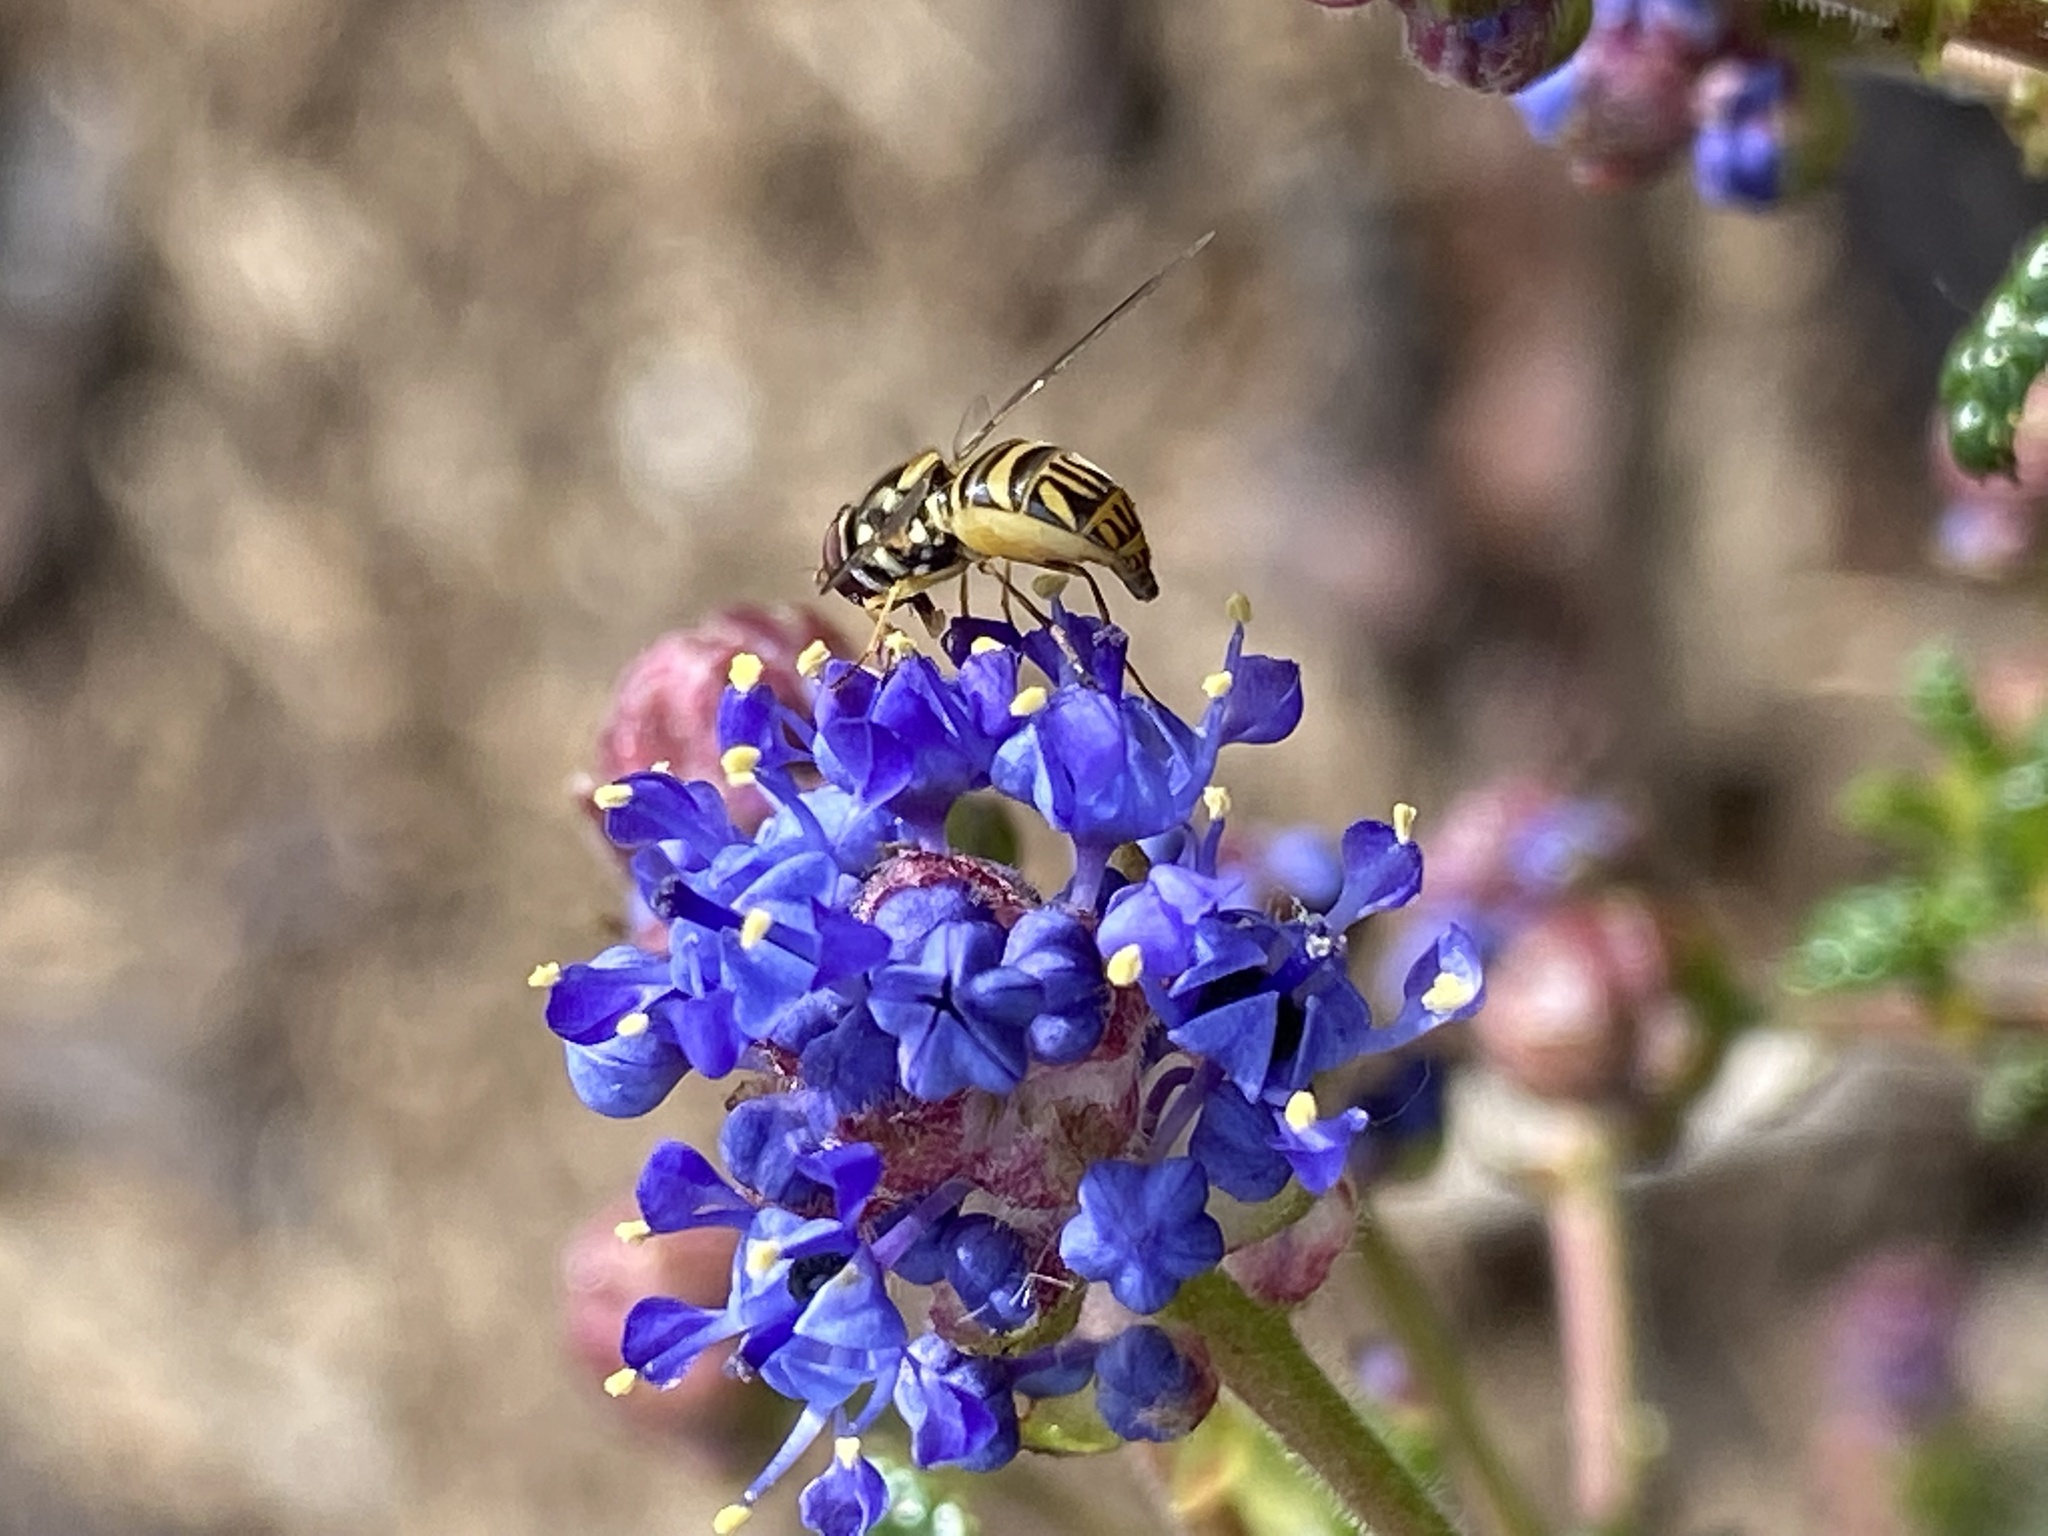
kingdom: Animalia
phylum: Arthropoda
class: Insecta
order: Diptera
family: Syrphidae
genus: Allograpta
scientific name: Allograpta obliqua
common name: Common oblique syrphid
